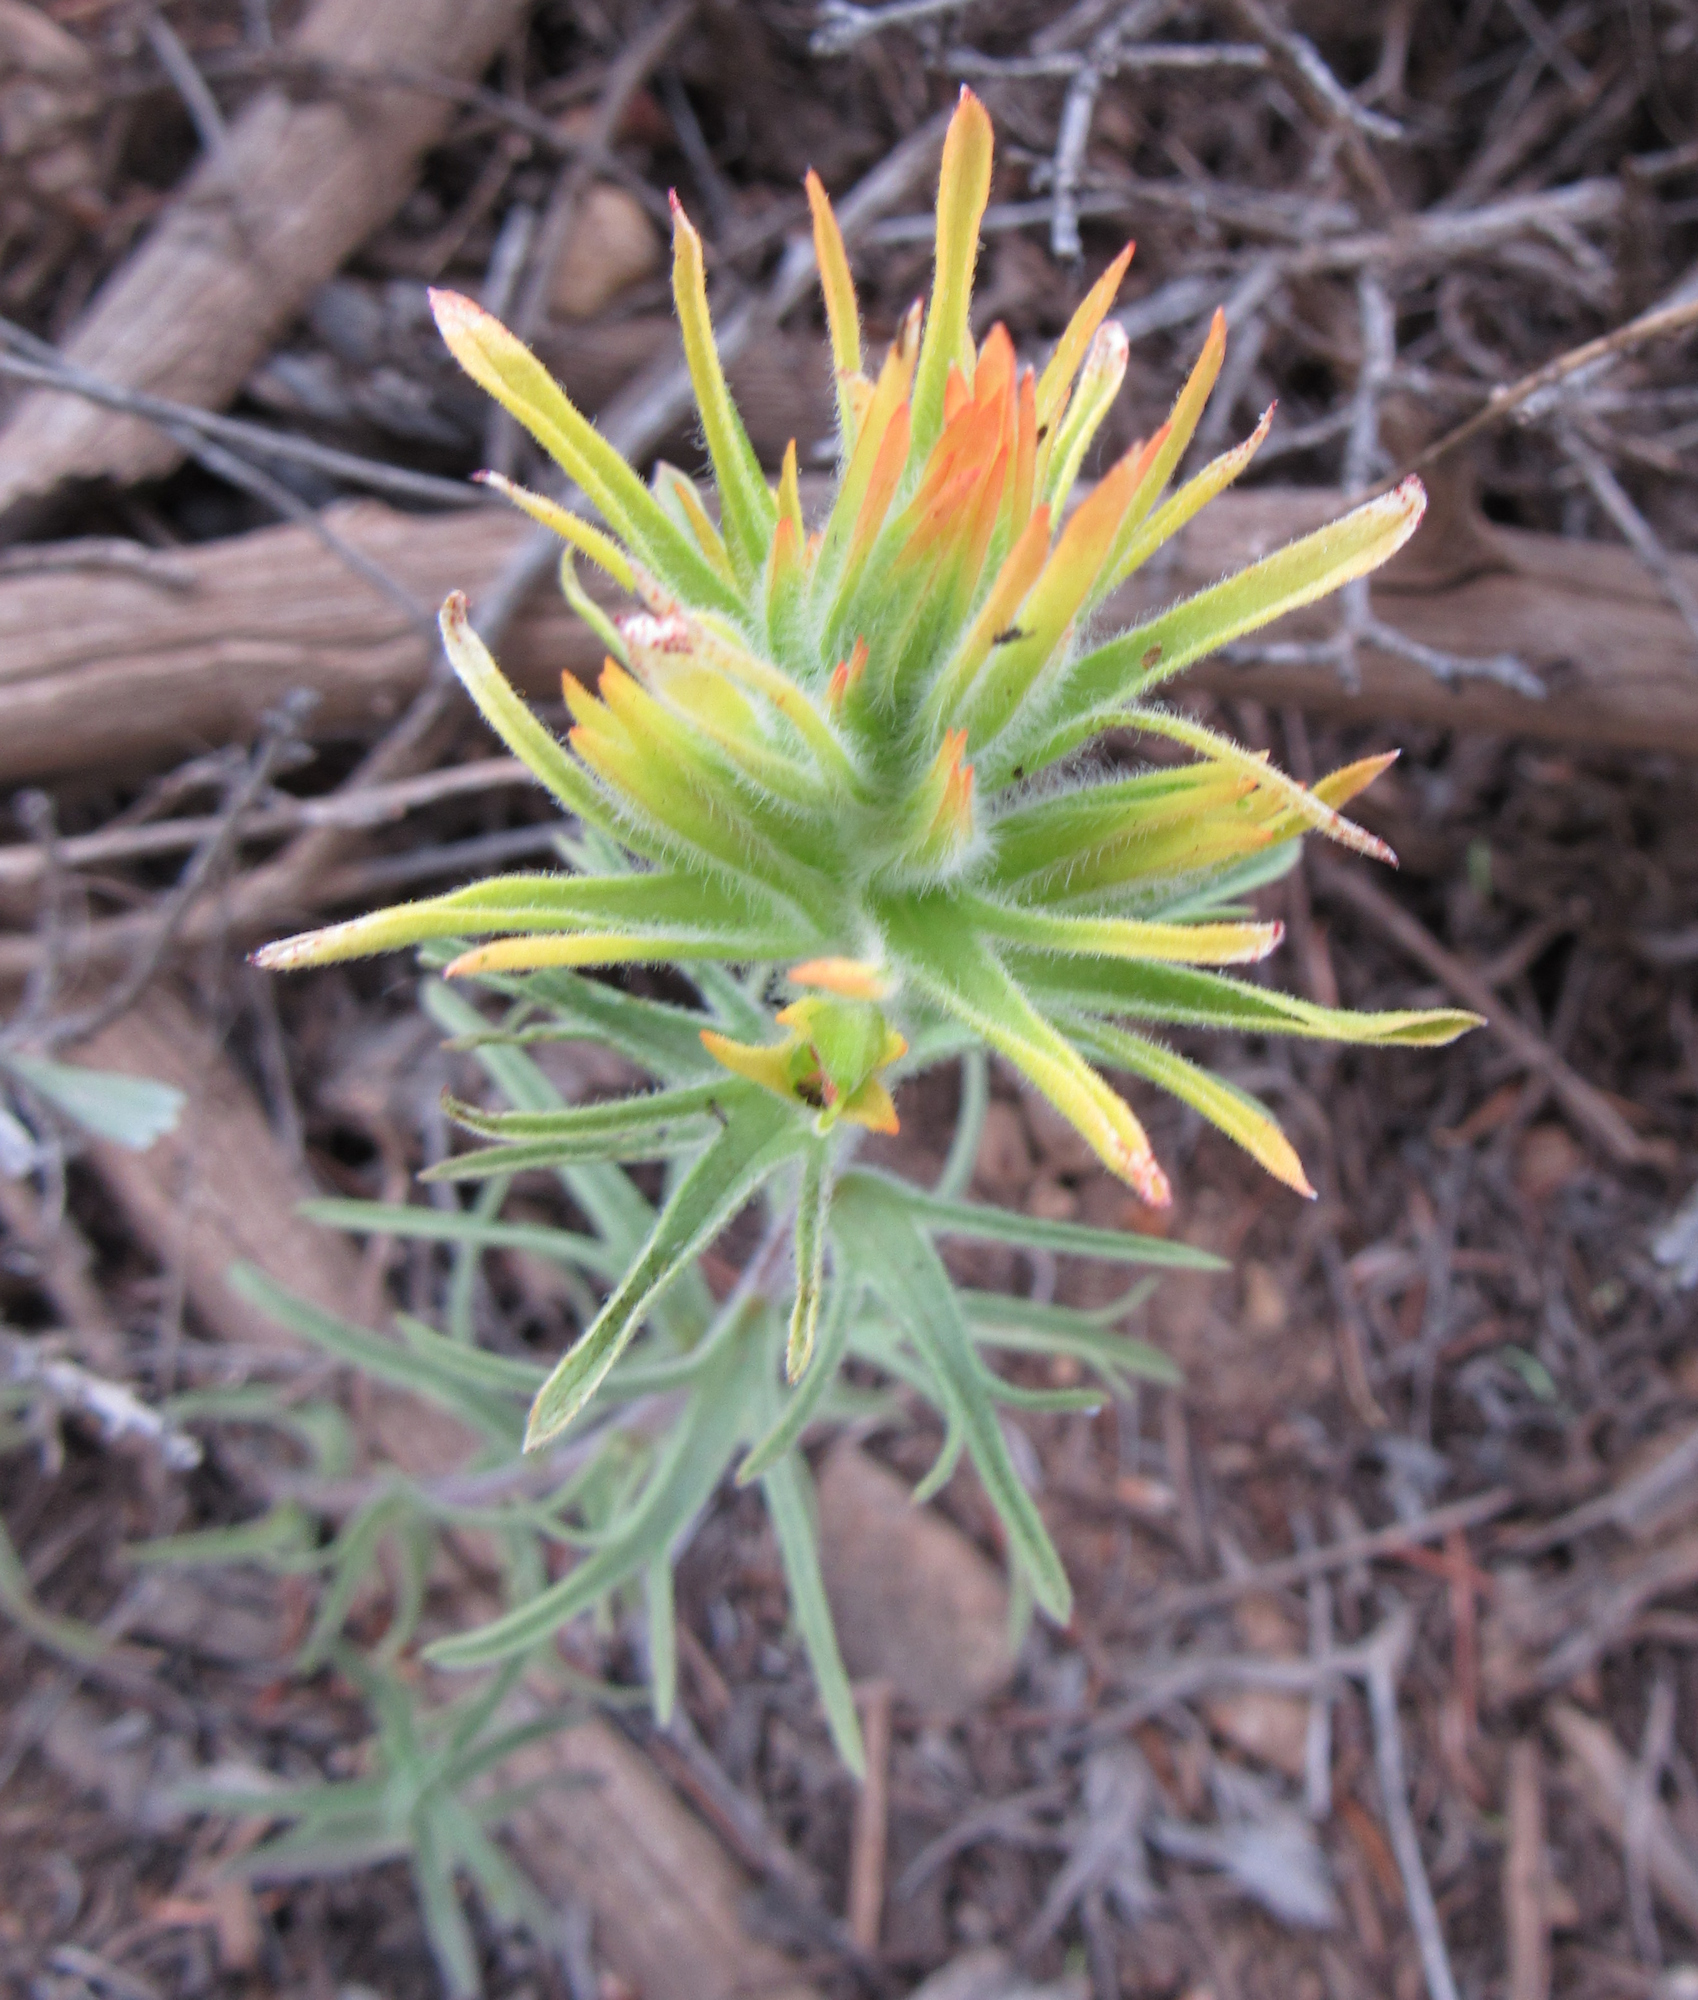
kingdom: Plantae
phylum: Tracheophyta
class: Magnoliopsida
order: Lamiales
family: Orobanchaceae
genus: Castilleja
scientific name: Castilleja covilleana
